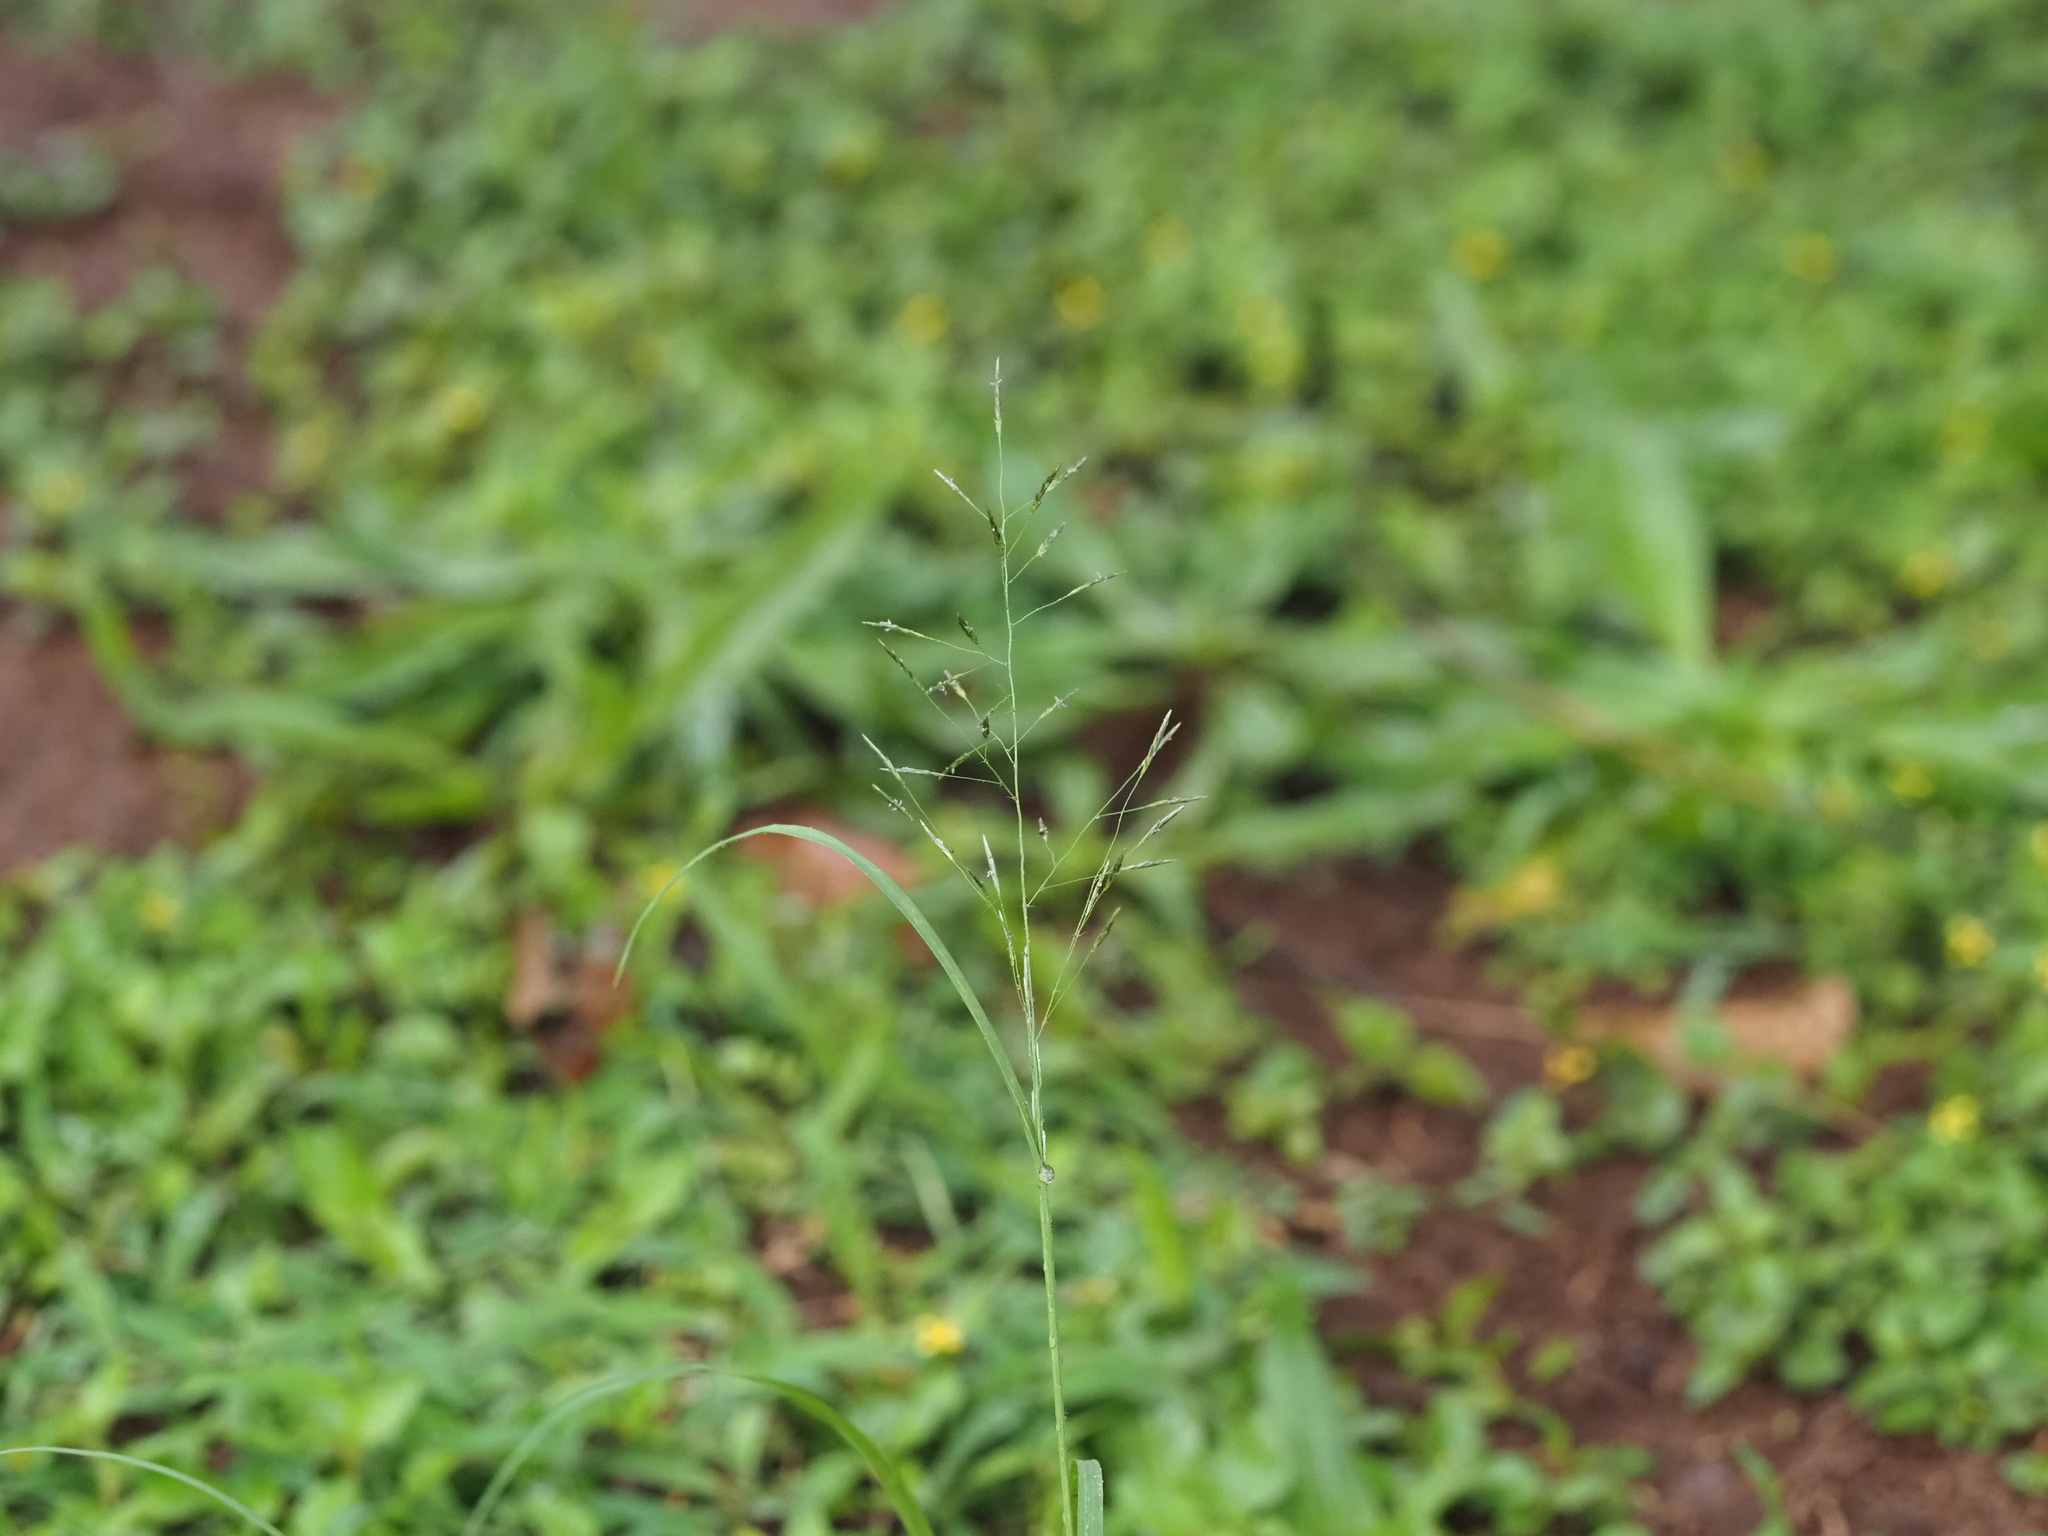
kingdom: Plantae
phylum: Tracheophyta
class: Liliopsida
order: Poales
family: Poaceae
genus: Eragrostis
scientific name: Eragrostis tenuifolia
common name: Elastic grass
